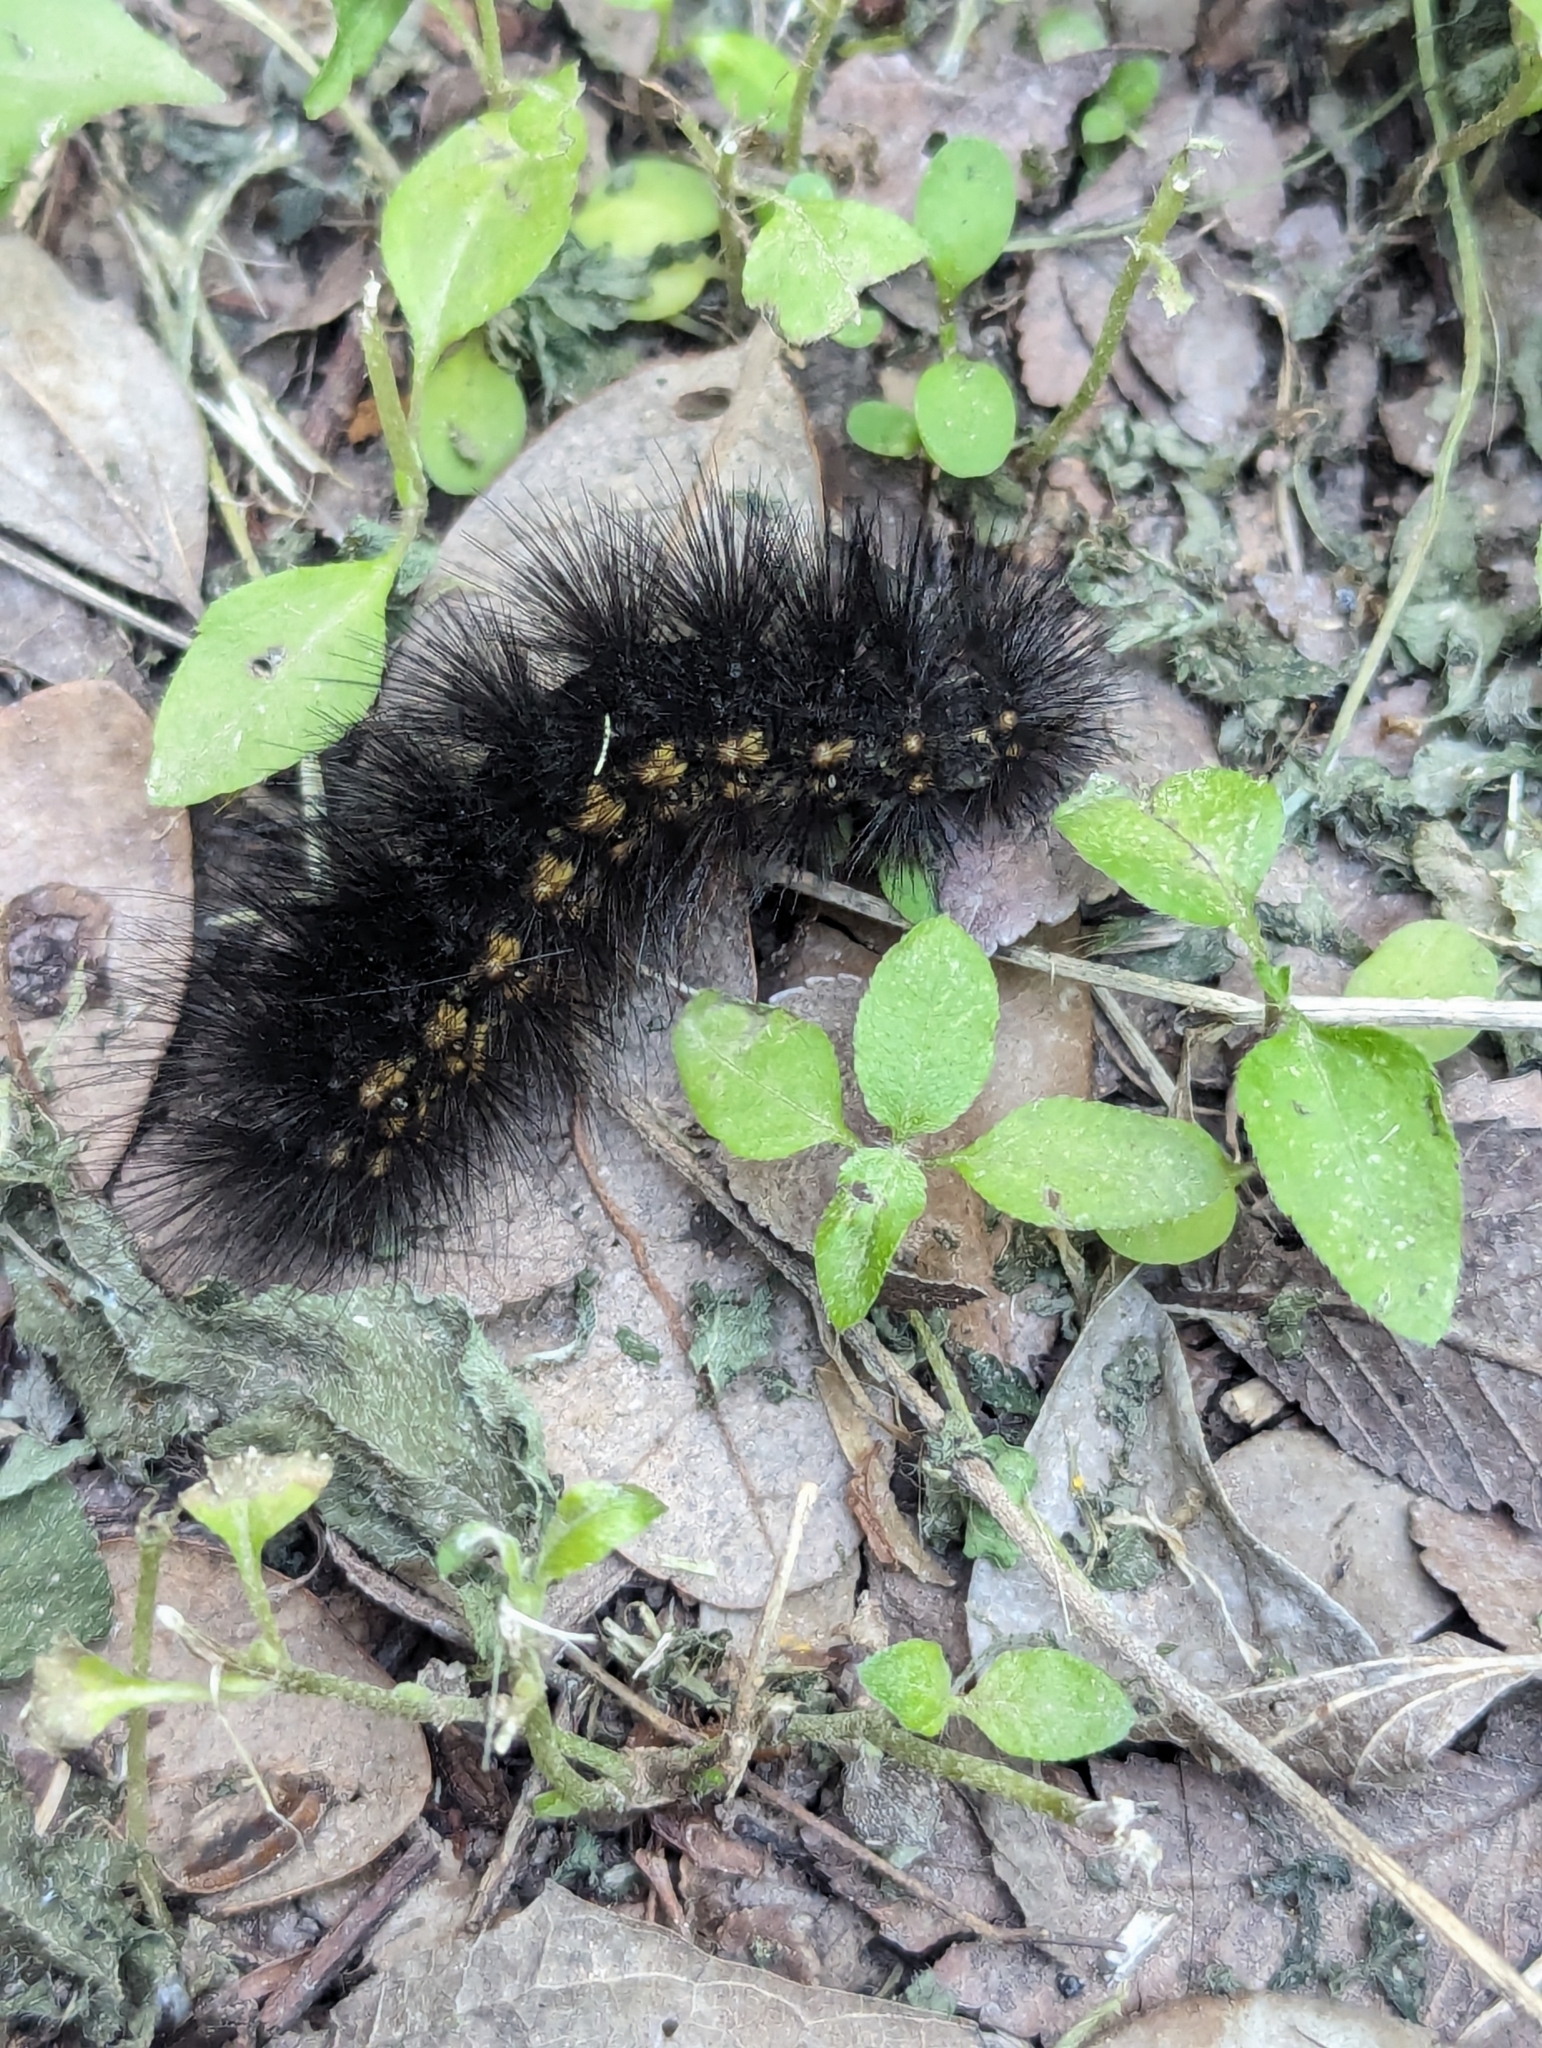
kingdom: Animalia
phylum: Arthropoda
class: Insecta
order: Lepidoptera
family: Erebidae
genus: Estigmene
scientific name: Estigmene acrea
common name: Salt marsh moth
